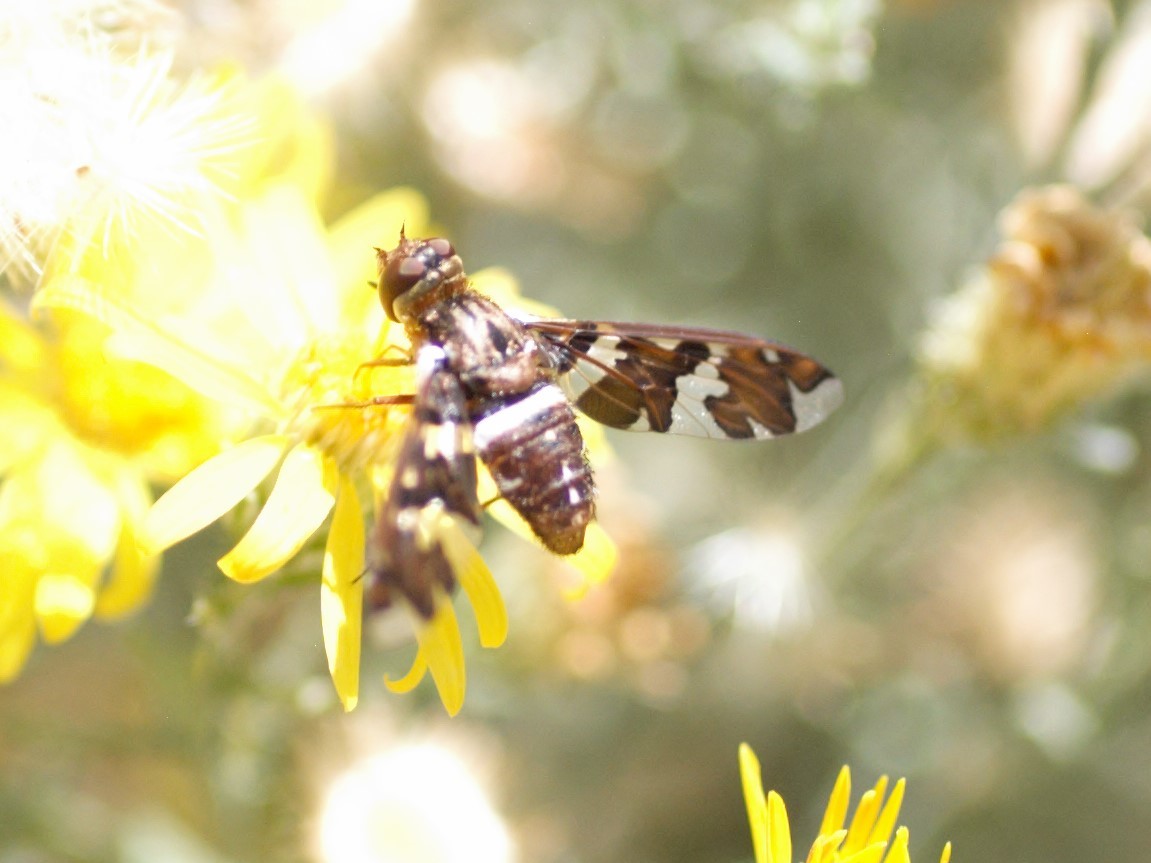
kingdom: Animalia
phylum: Arthropoda
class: Insecta
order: Diptera
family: Bombyliidae
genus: Exoprosopa
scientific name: Exoprosopa caliptera
